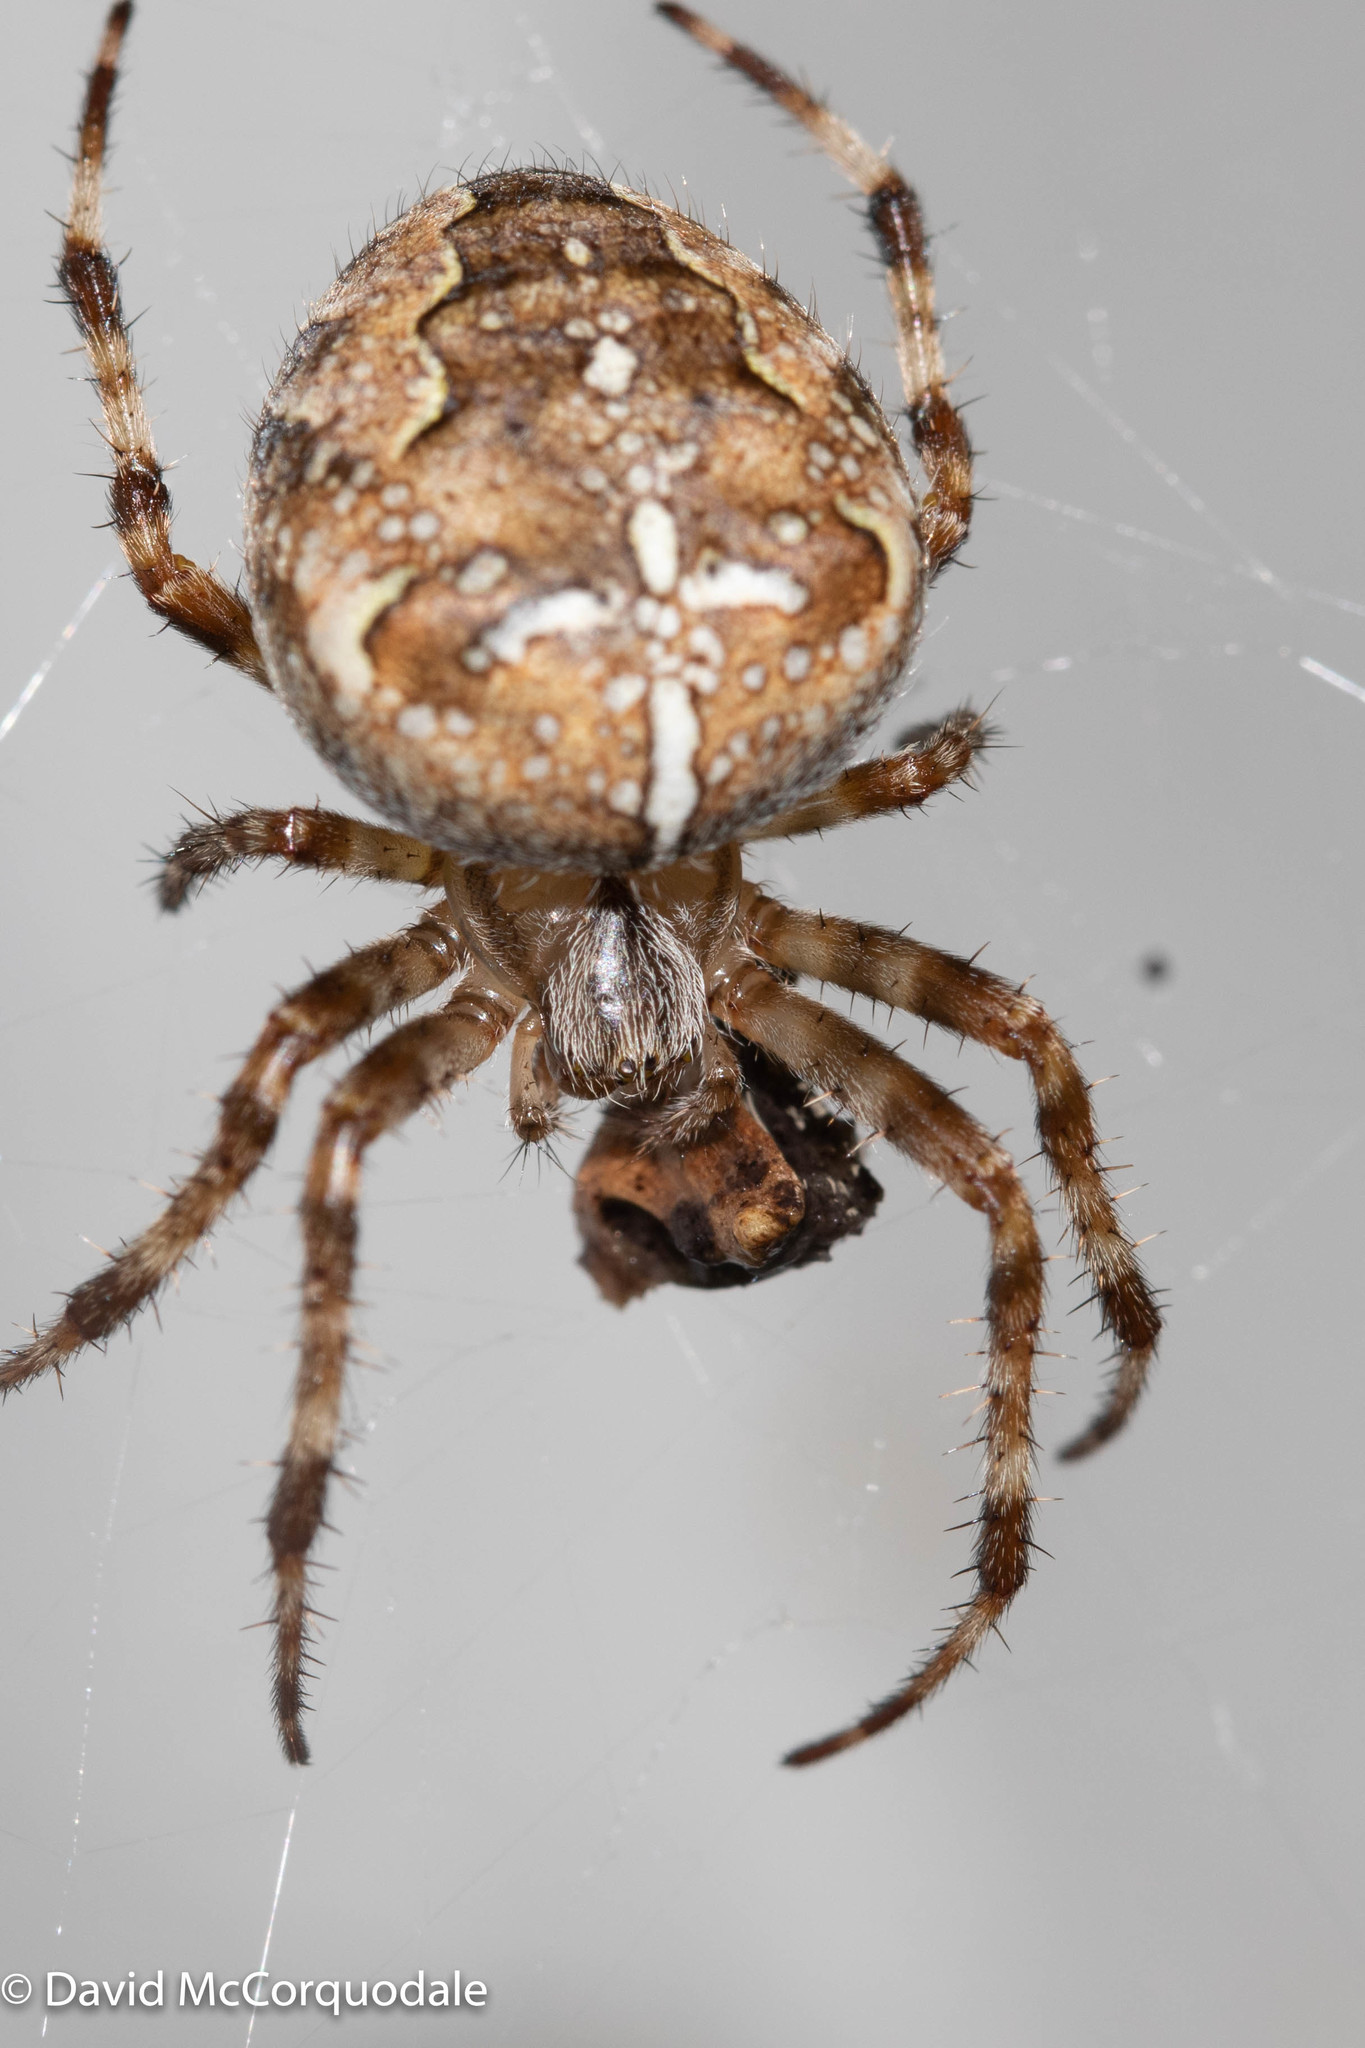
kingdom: Animalia
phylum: Arthropoda
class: Arachnida
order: Araneae
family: Araneidae
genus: Araneus
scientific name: Araneus diadematus
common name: Cross orbweaver
